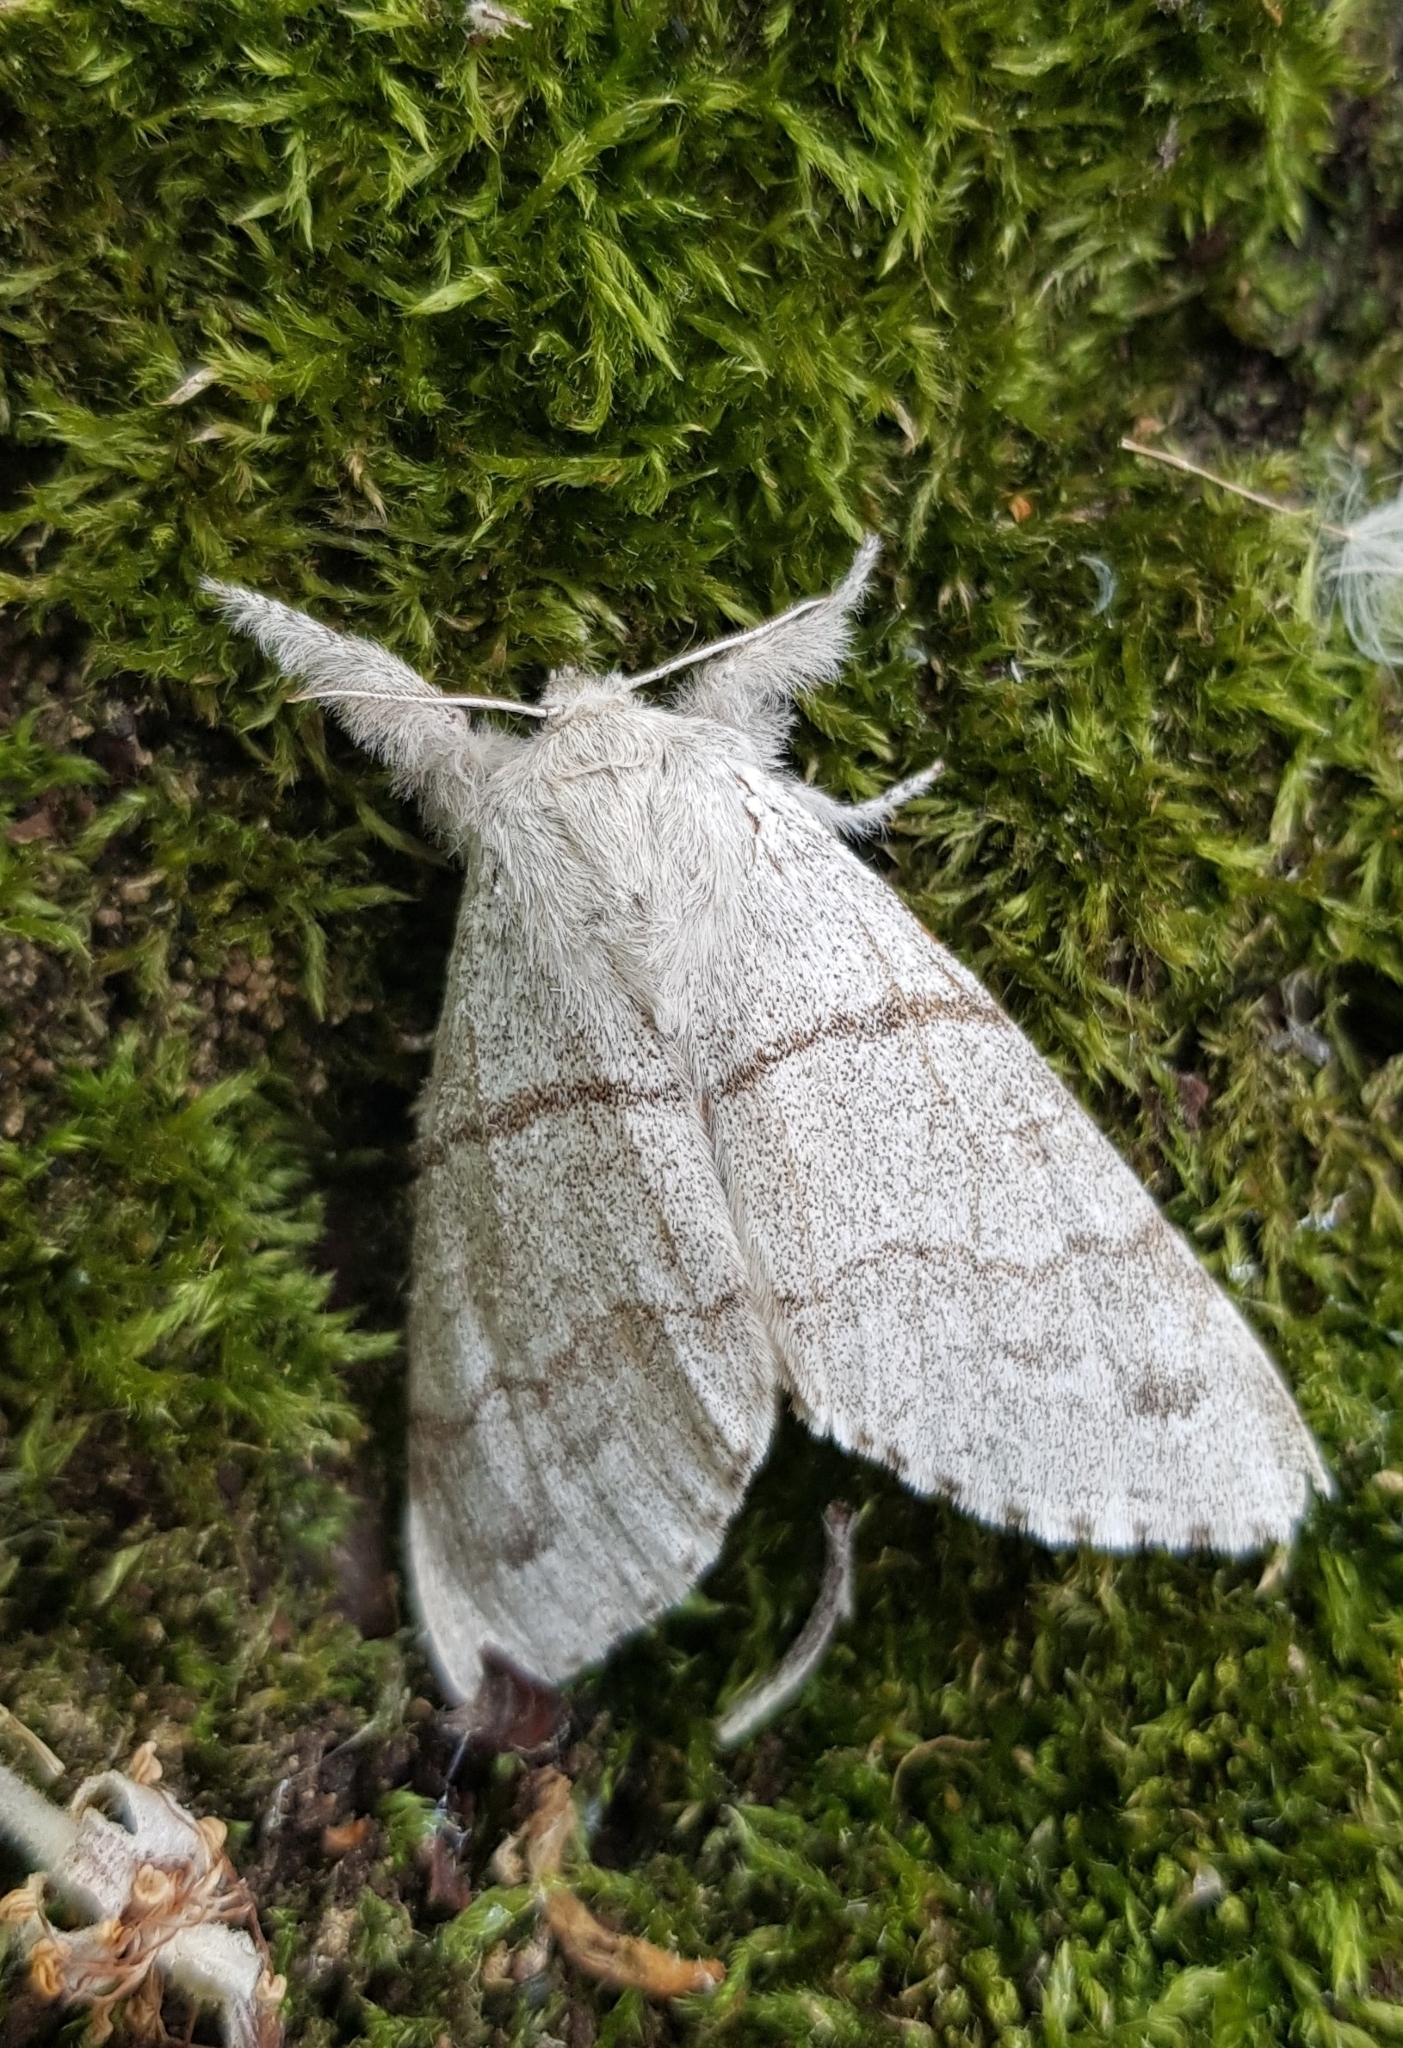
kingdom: Animalia
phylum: Arthropoda
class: Insecta
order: Lepidoptera
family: Erebidae
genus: Calliteara
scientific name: Calliteara pudibunda
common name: Pale tussock
